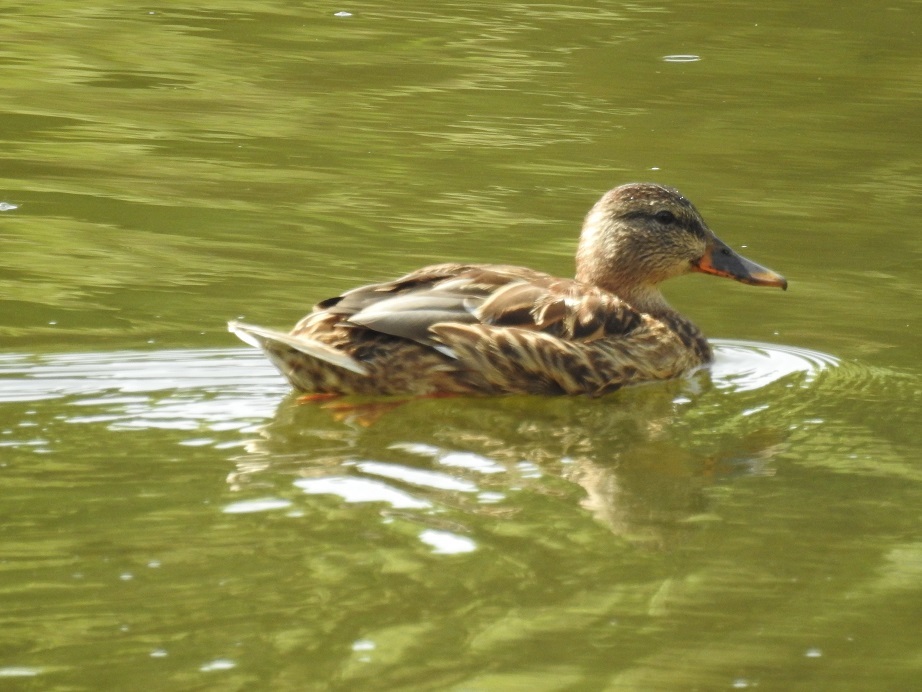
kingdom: Animalia
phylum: Chordata
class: Aves
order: Anseriformes
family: Anatidae
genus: Anas
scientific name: Anas platyrhynchos
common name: Mallard
